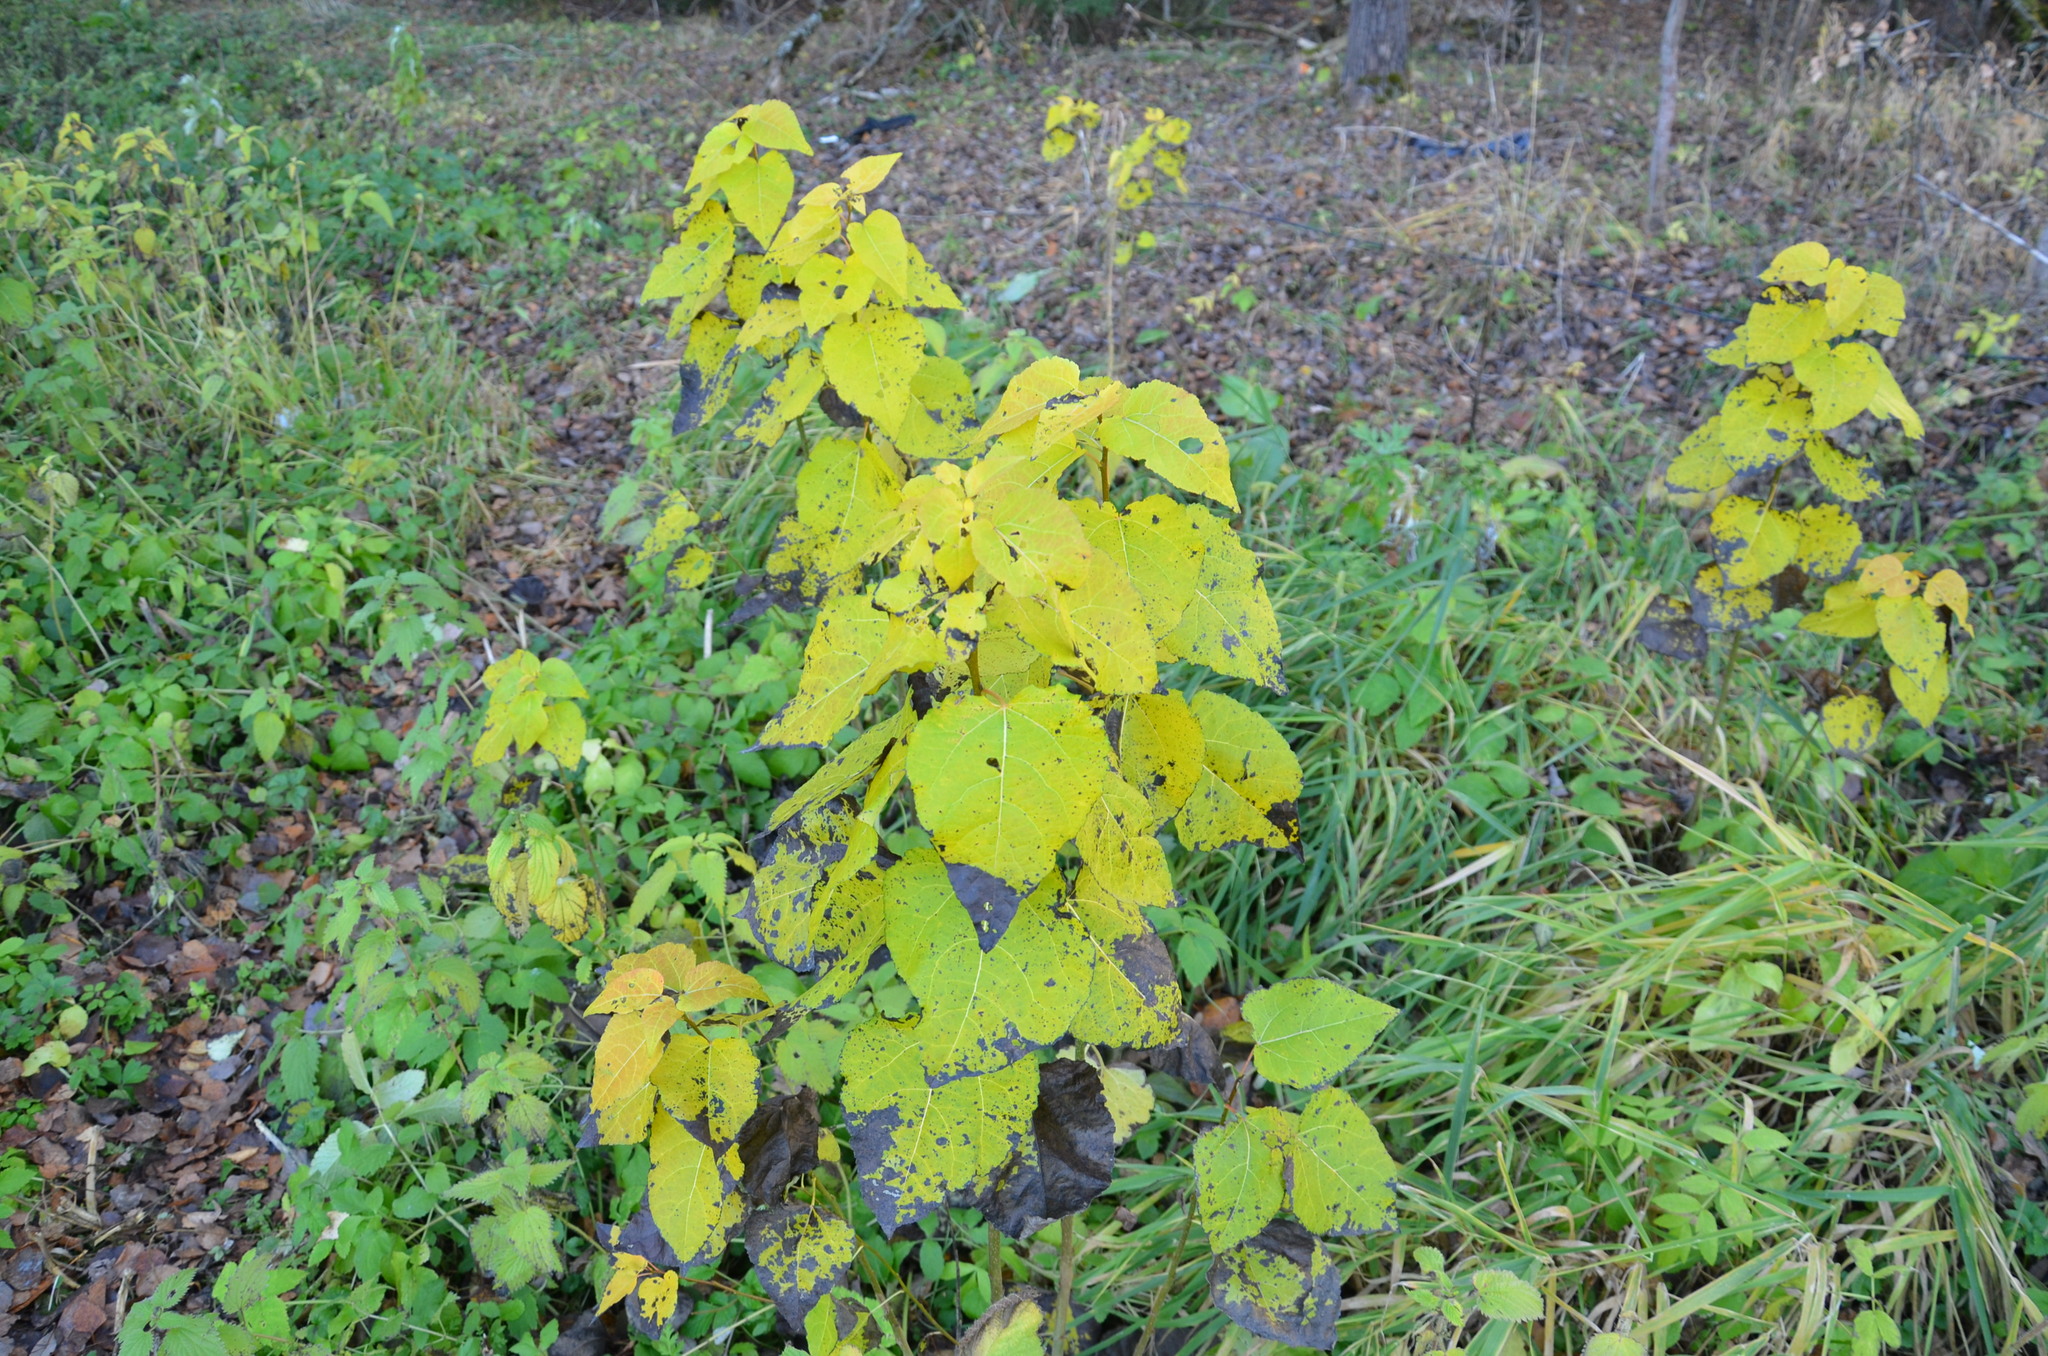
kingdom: Plantae
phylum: Tracheophyta
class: Magnoliopsida
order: Malpighiales
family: Salicaceae
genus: Populus
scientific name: Populus tremula
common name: European aspen
